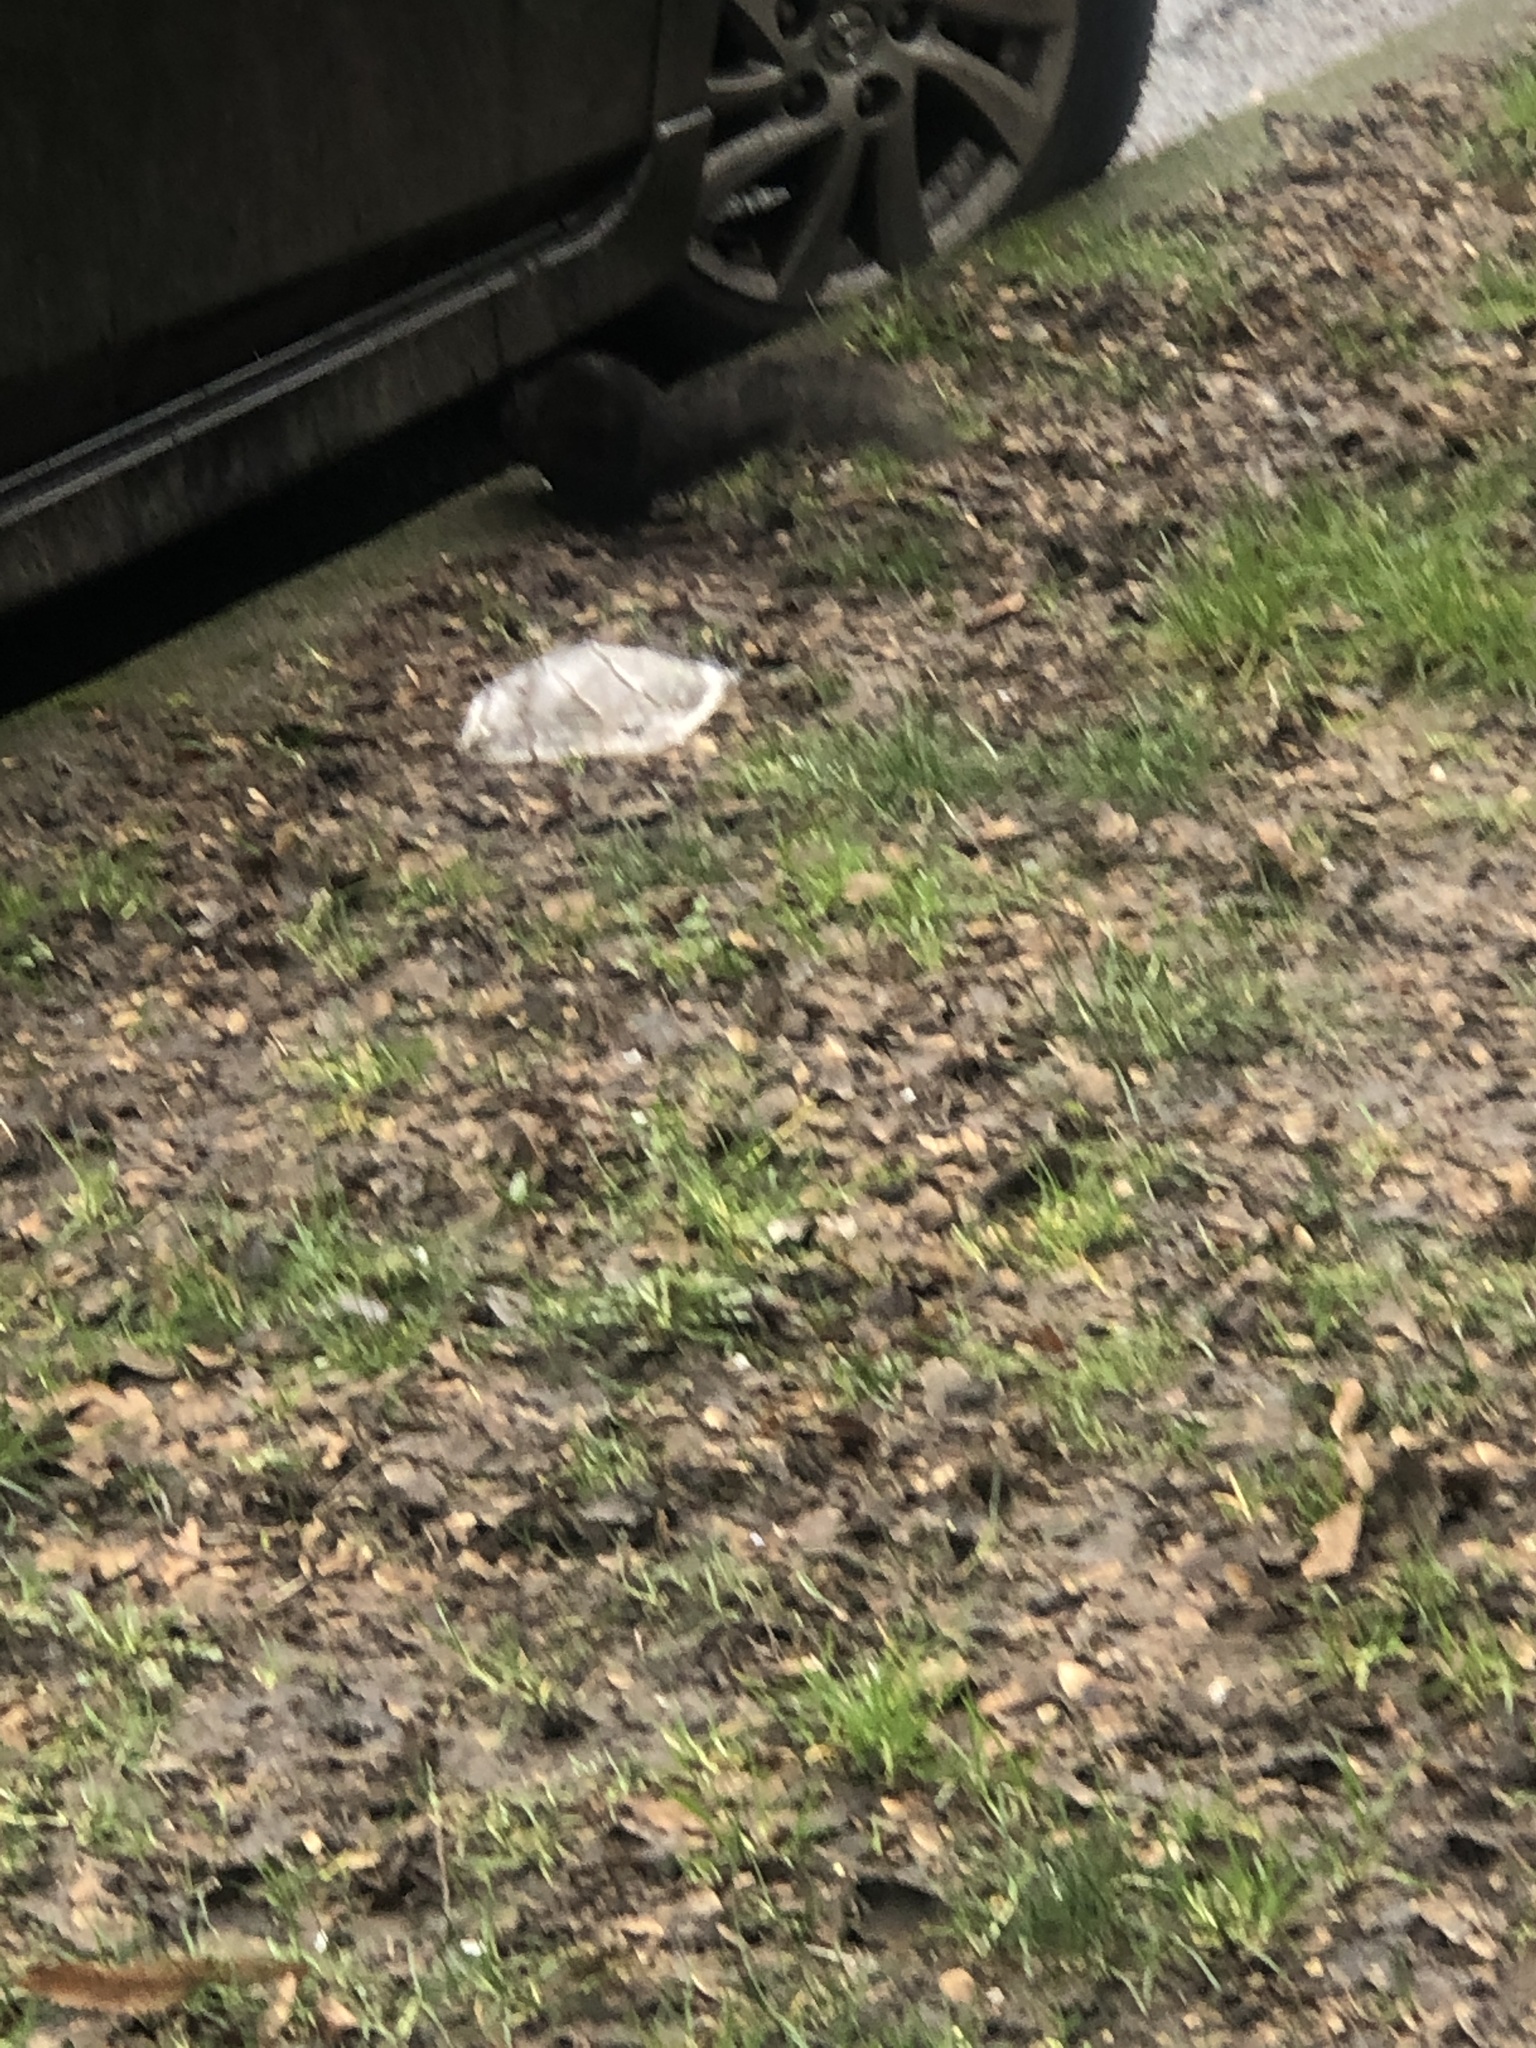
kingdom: Animalia
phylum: Chordata
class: Mammalia
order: Rodentia
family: Sciuridae
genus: Sciurus
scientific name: Sciurus carolinensis
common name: Eastern gray squirrel
